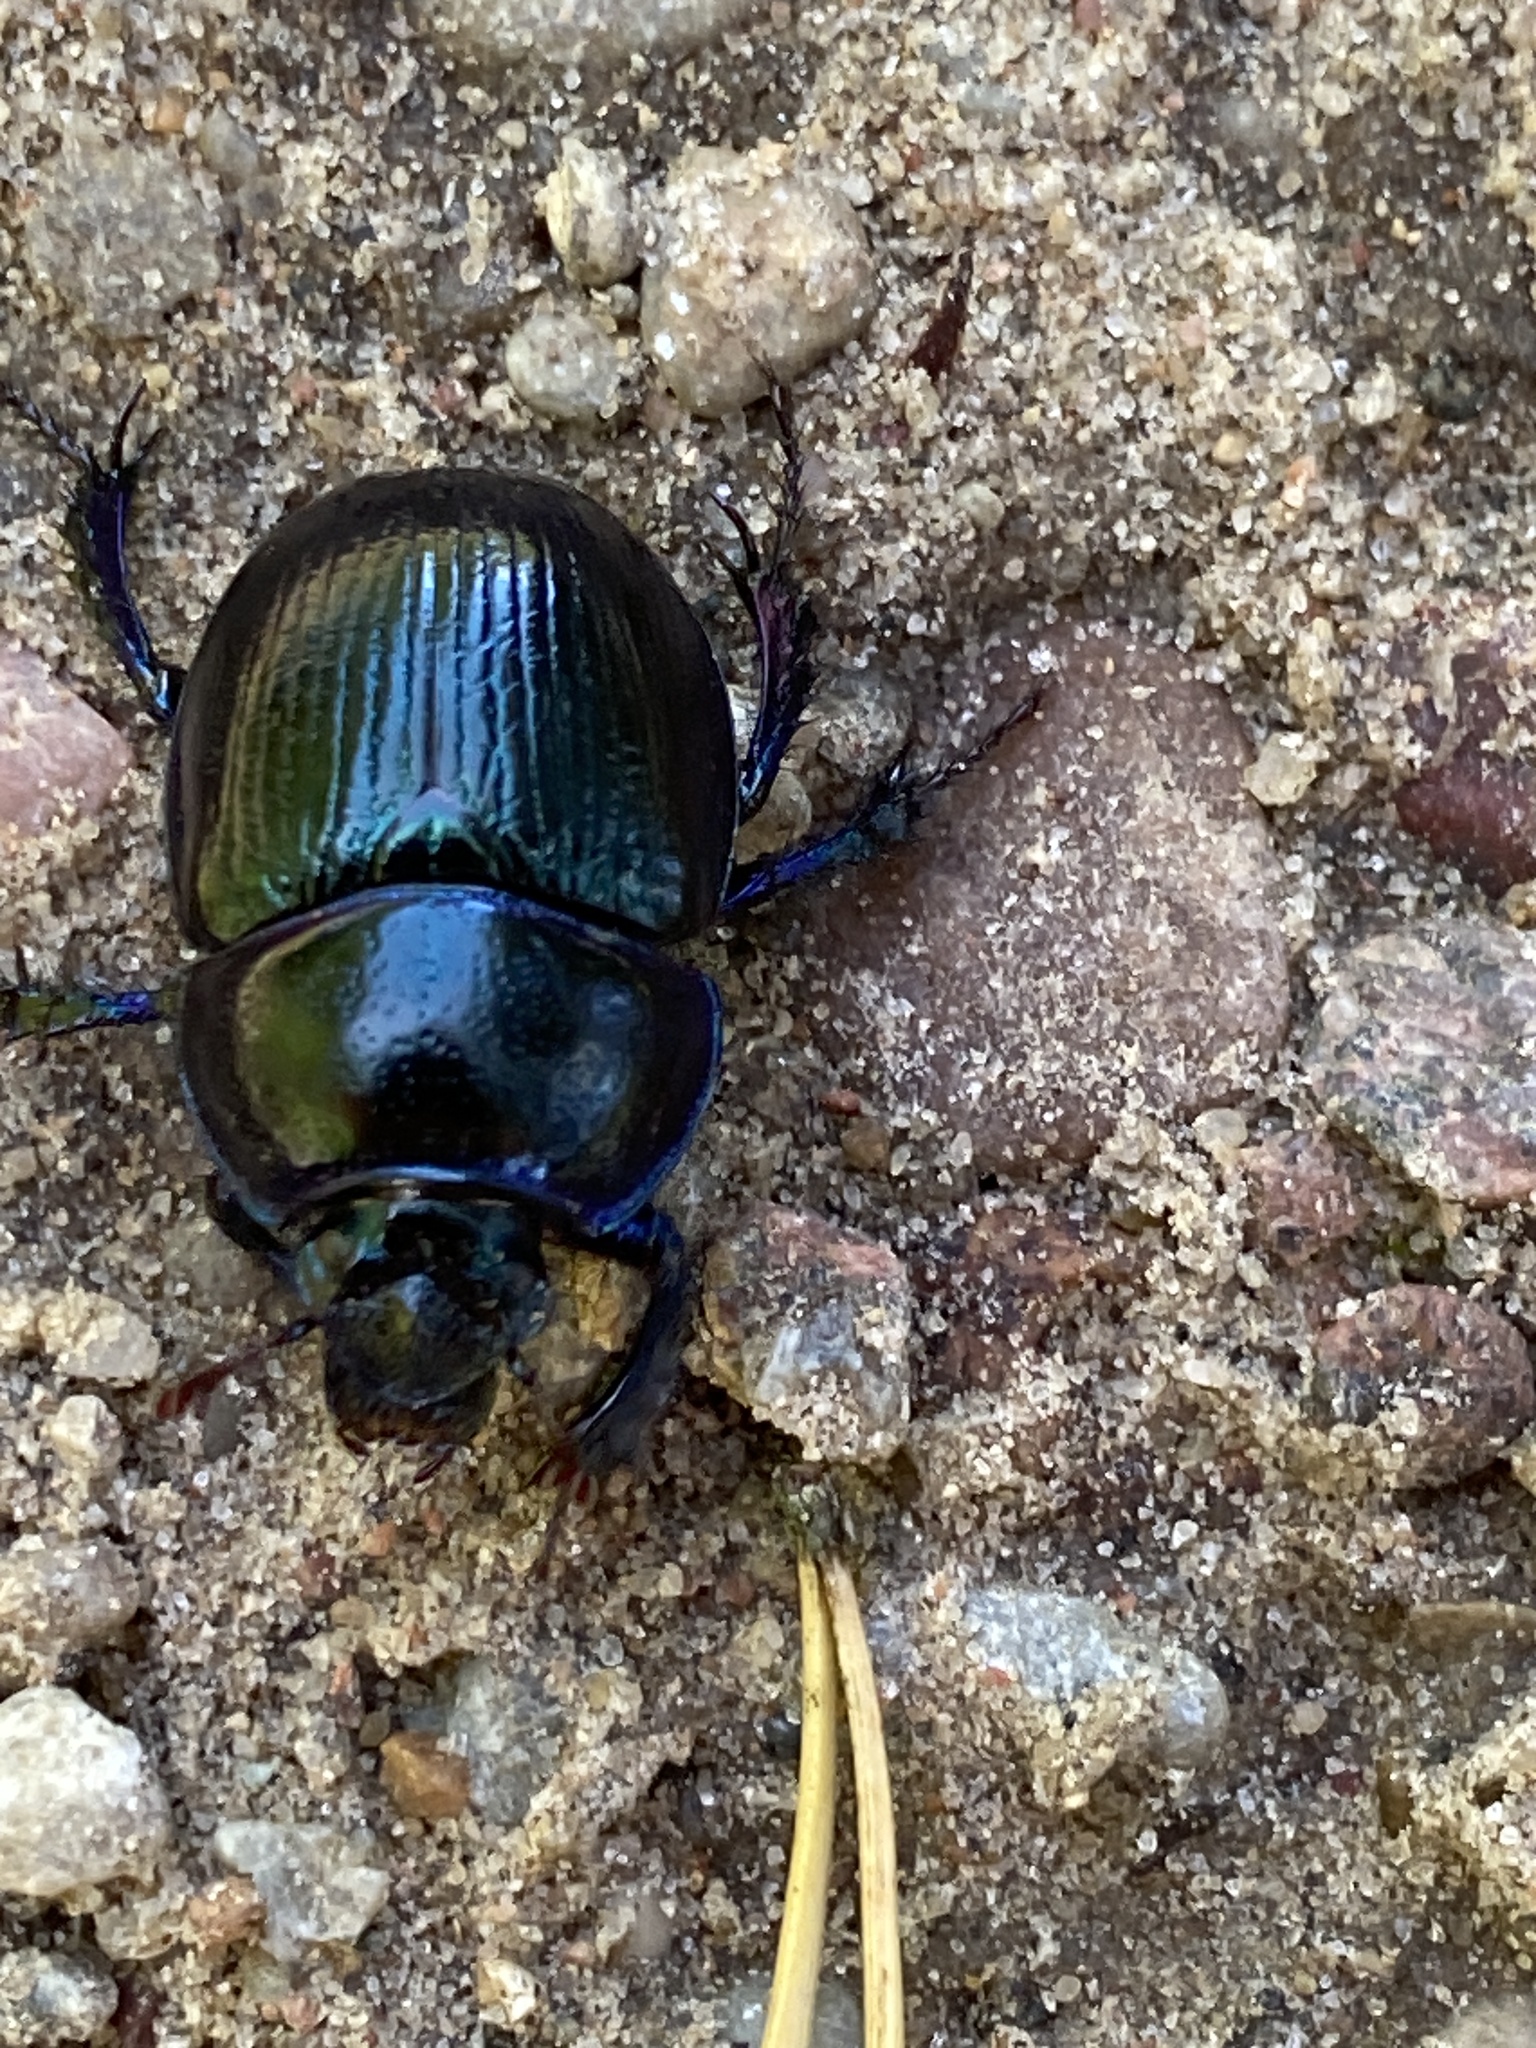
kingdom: Animalia
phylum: Arthropoda
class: Insecta
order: Coleoptera
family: Geotrupidae
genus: Anoplotrupes
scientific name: Anoplotrupes stercorosus
